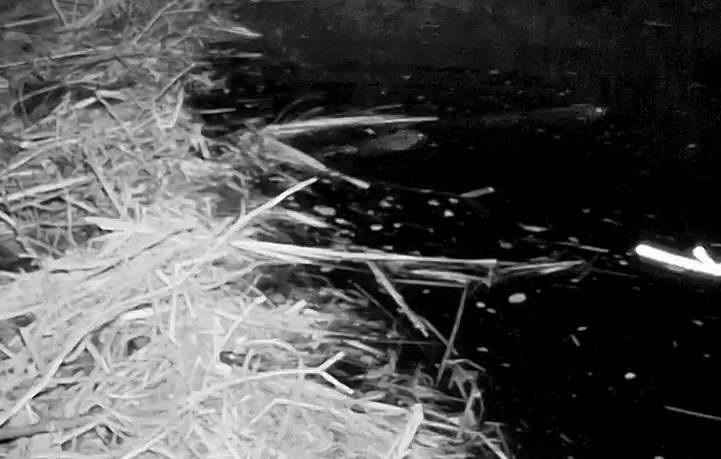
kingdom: Animalia
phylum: Chordata
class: Mammalia
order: Rodentia
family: Castoridae
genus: Castor
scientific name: Castor canadensis
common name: American beaver
